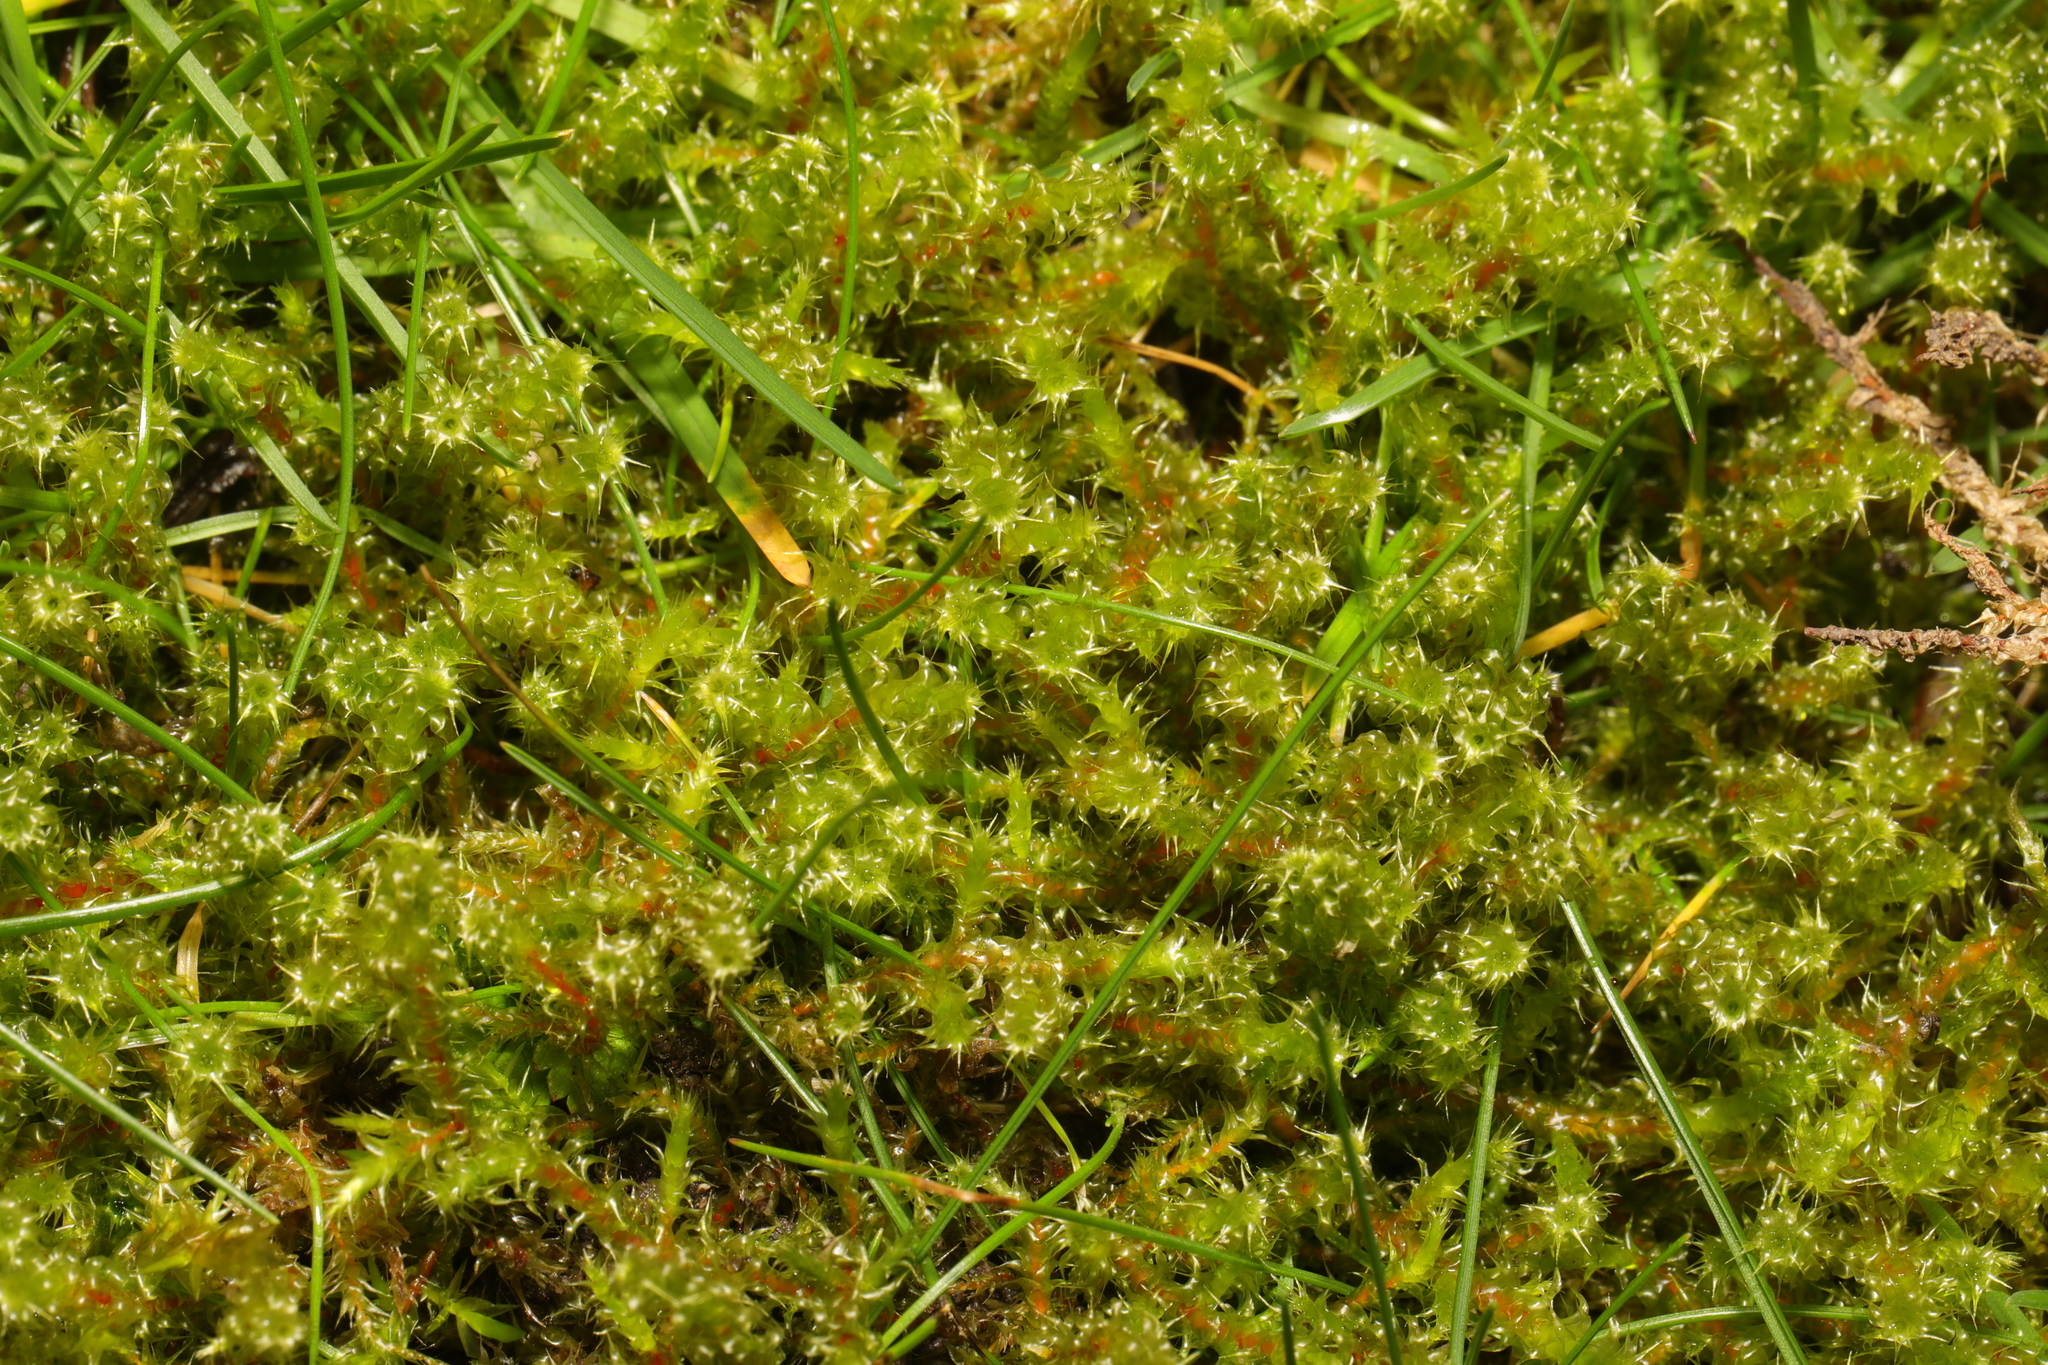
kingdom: Plantae
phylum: Bryophyta
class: Bryopsida
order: Hypnales
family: Hylocomiaceae
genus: Rhytidiadelphus
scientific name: Rhytidiadelphus squarrosus
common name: Springy turf-moss
